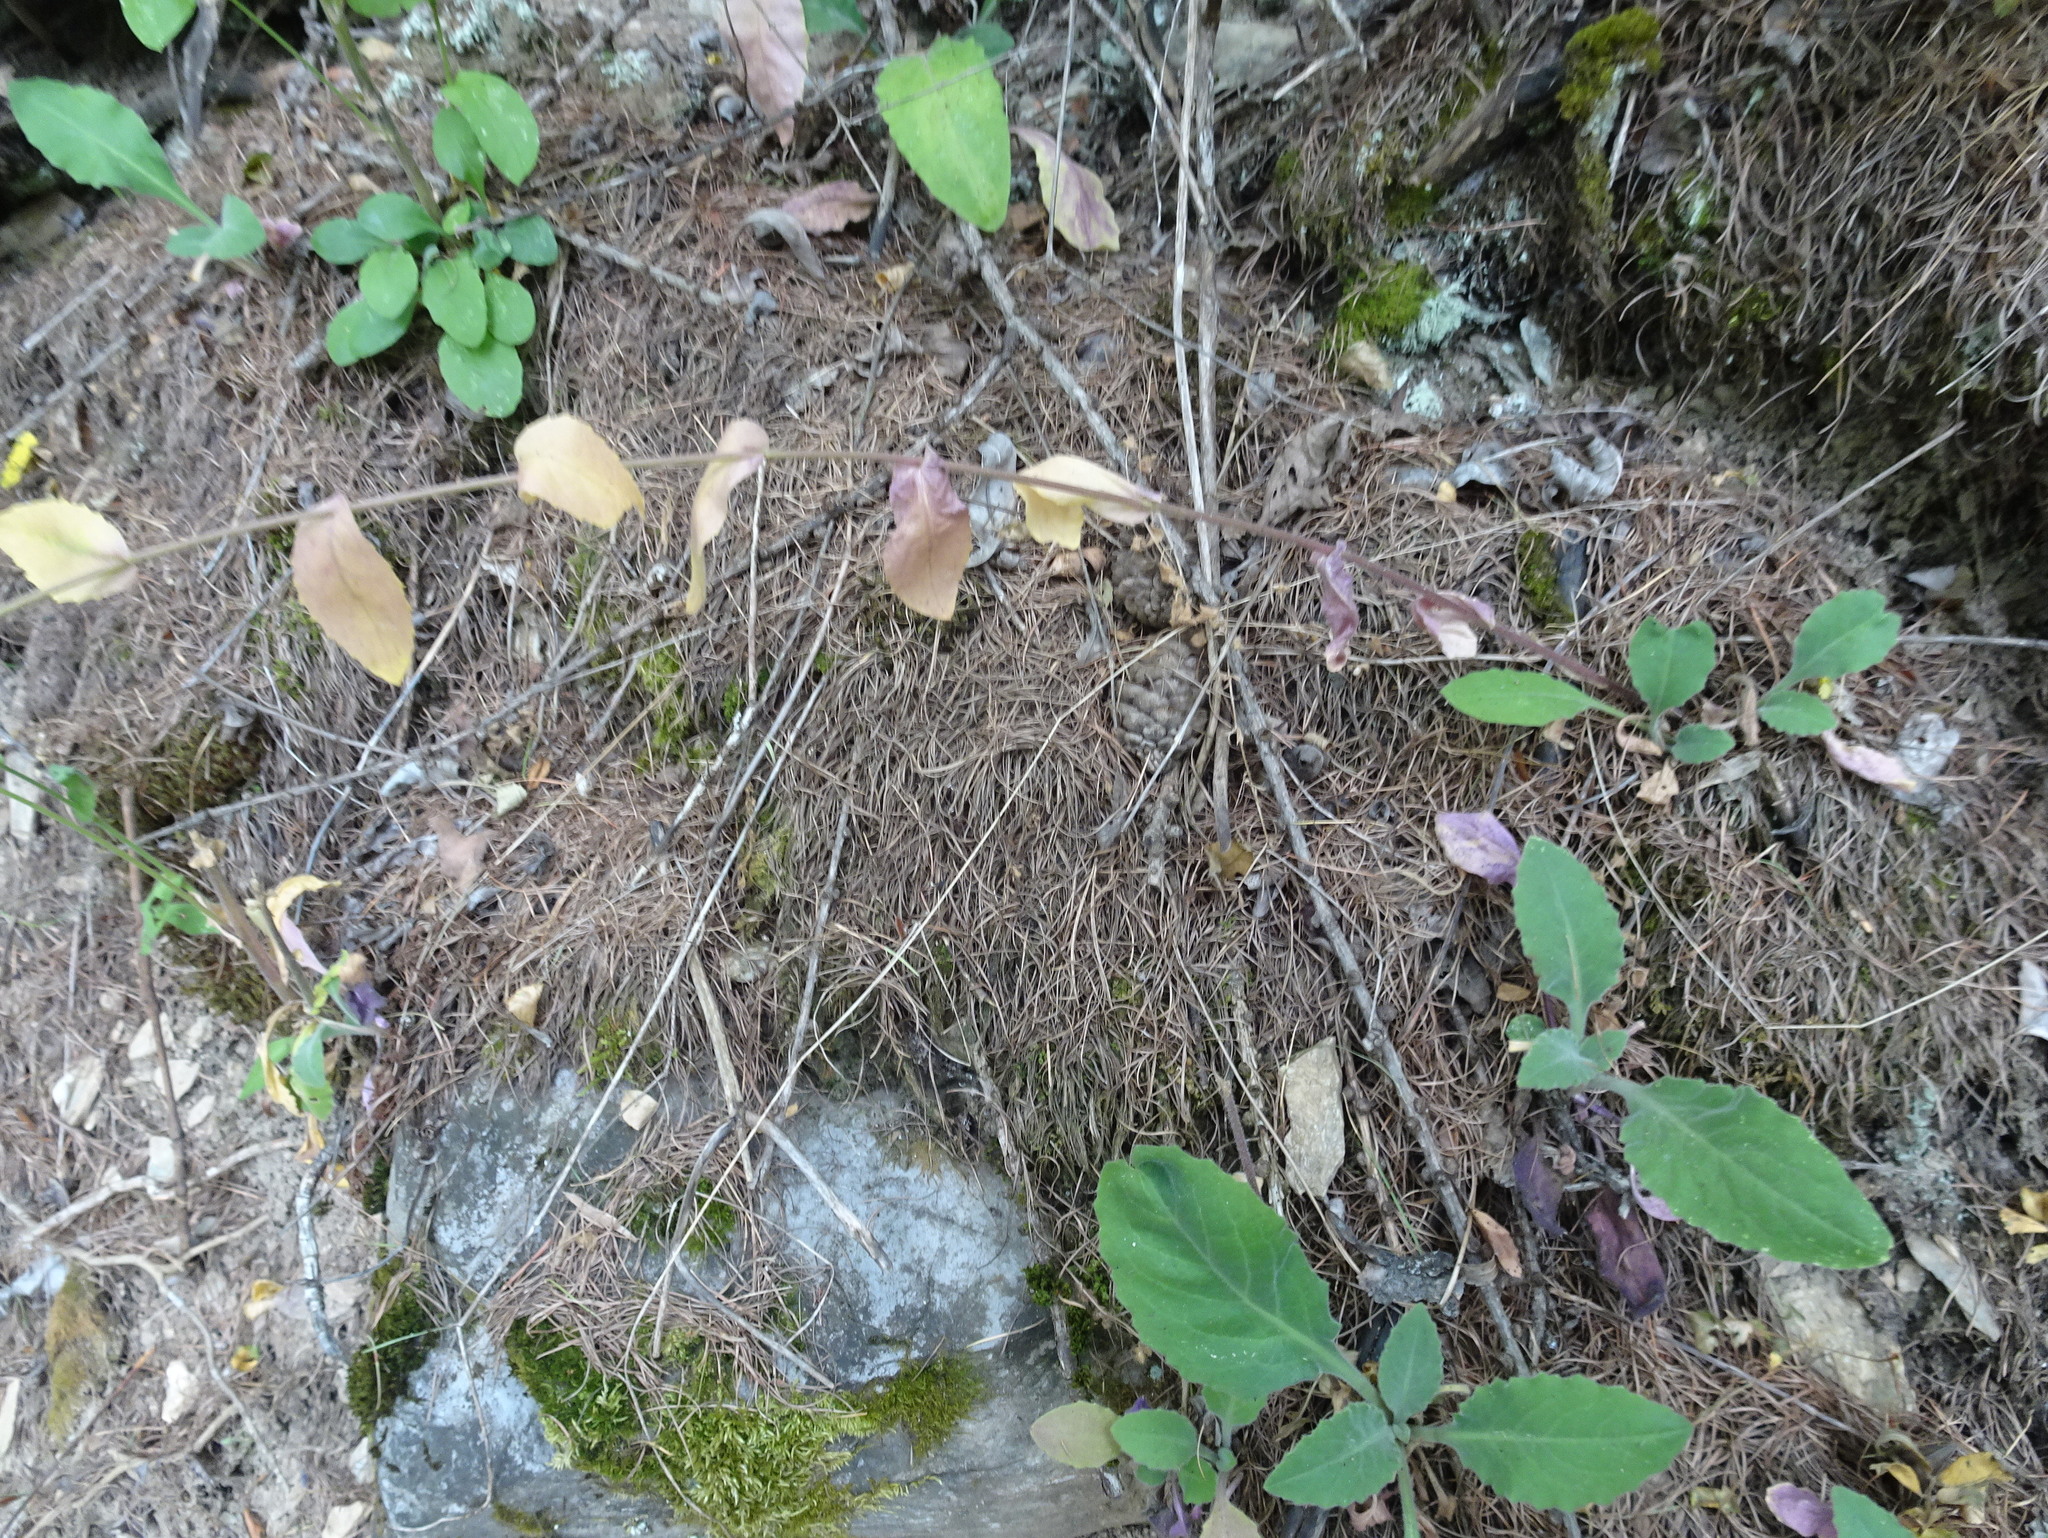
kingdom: Plantae
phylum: Tracheophyta
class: Magnoliopsida
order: Brassicales
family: Brassicaceae
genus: Pseudoturritis
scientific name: Pseudoturritis turrita
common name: Tower cress
